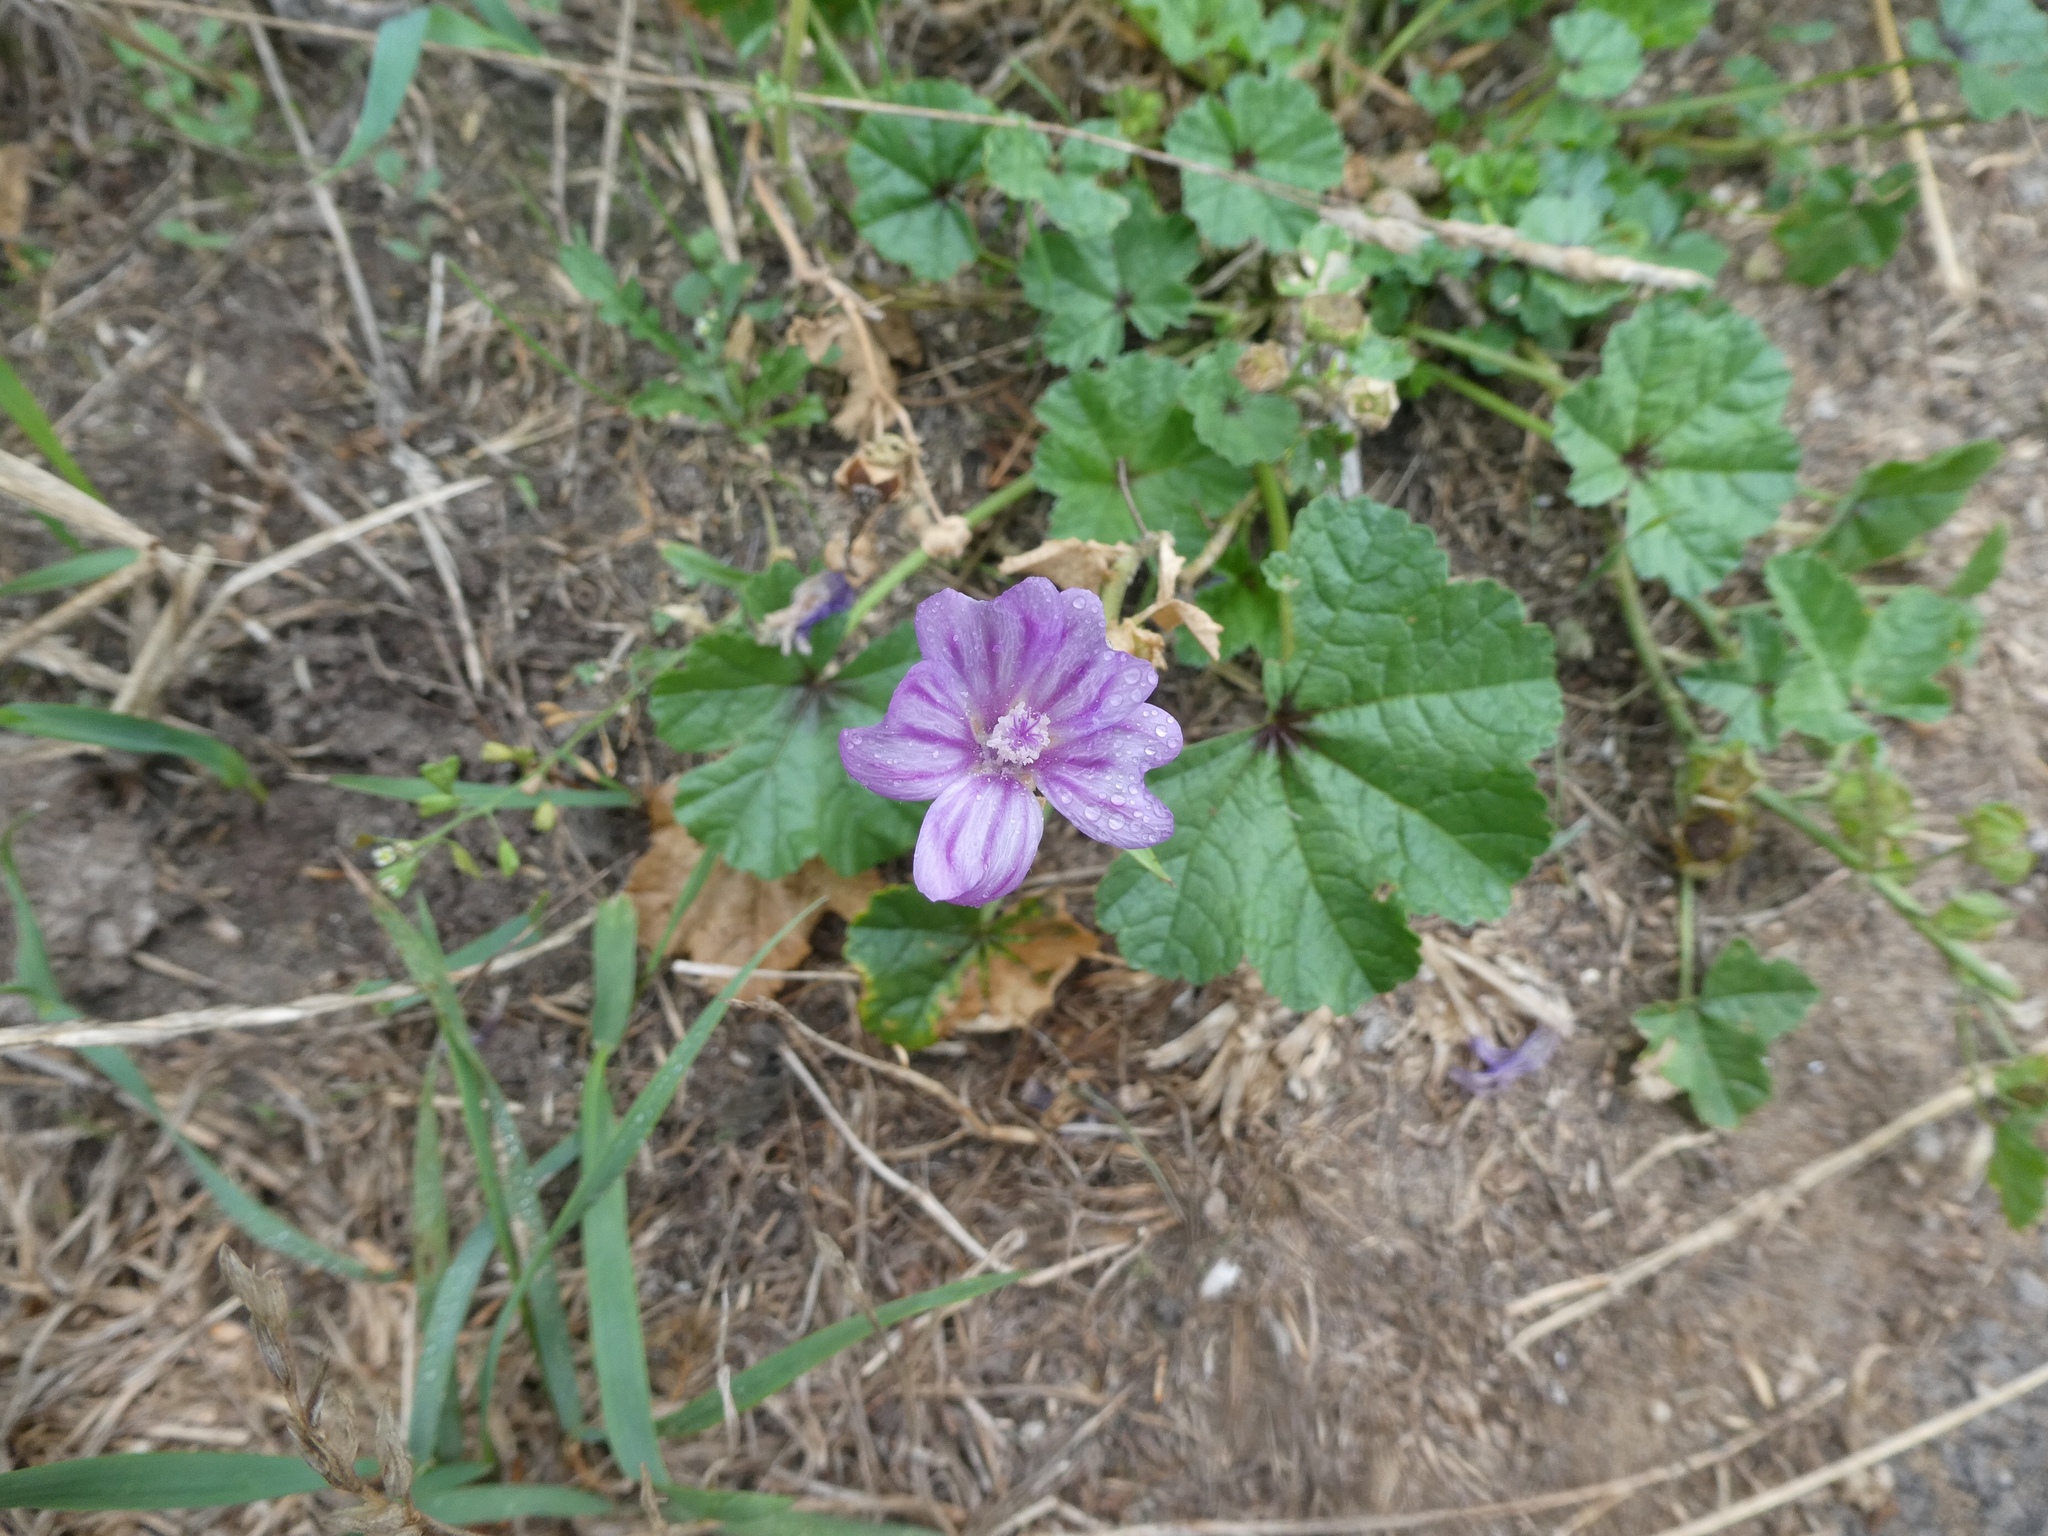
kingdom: Plantae
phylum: Tracheophyta
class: Magnoliopsida
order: Malvales
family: Malvaceae
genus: Malva
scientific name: Malva sylvestris
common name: Common mallow
